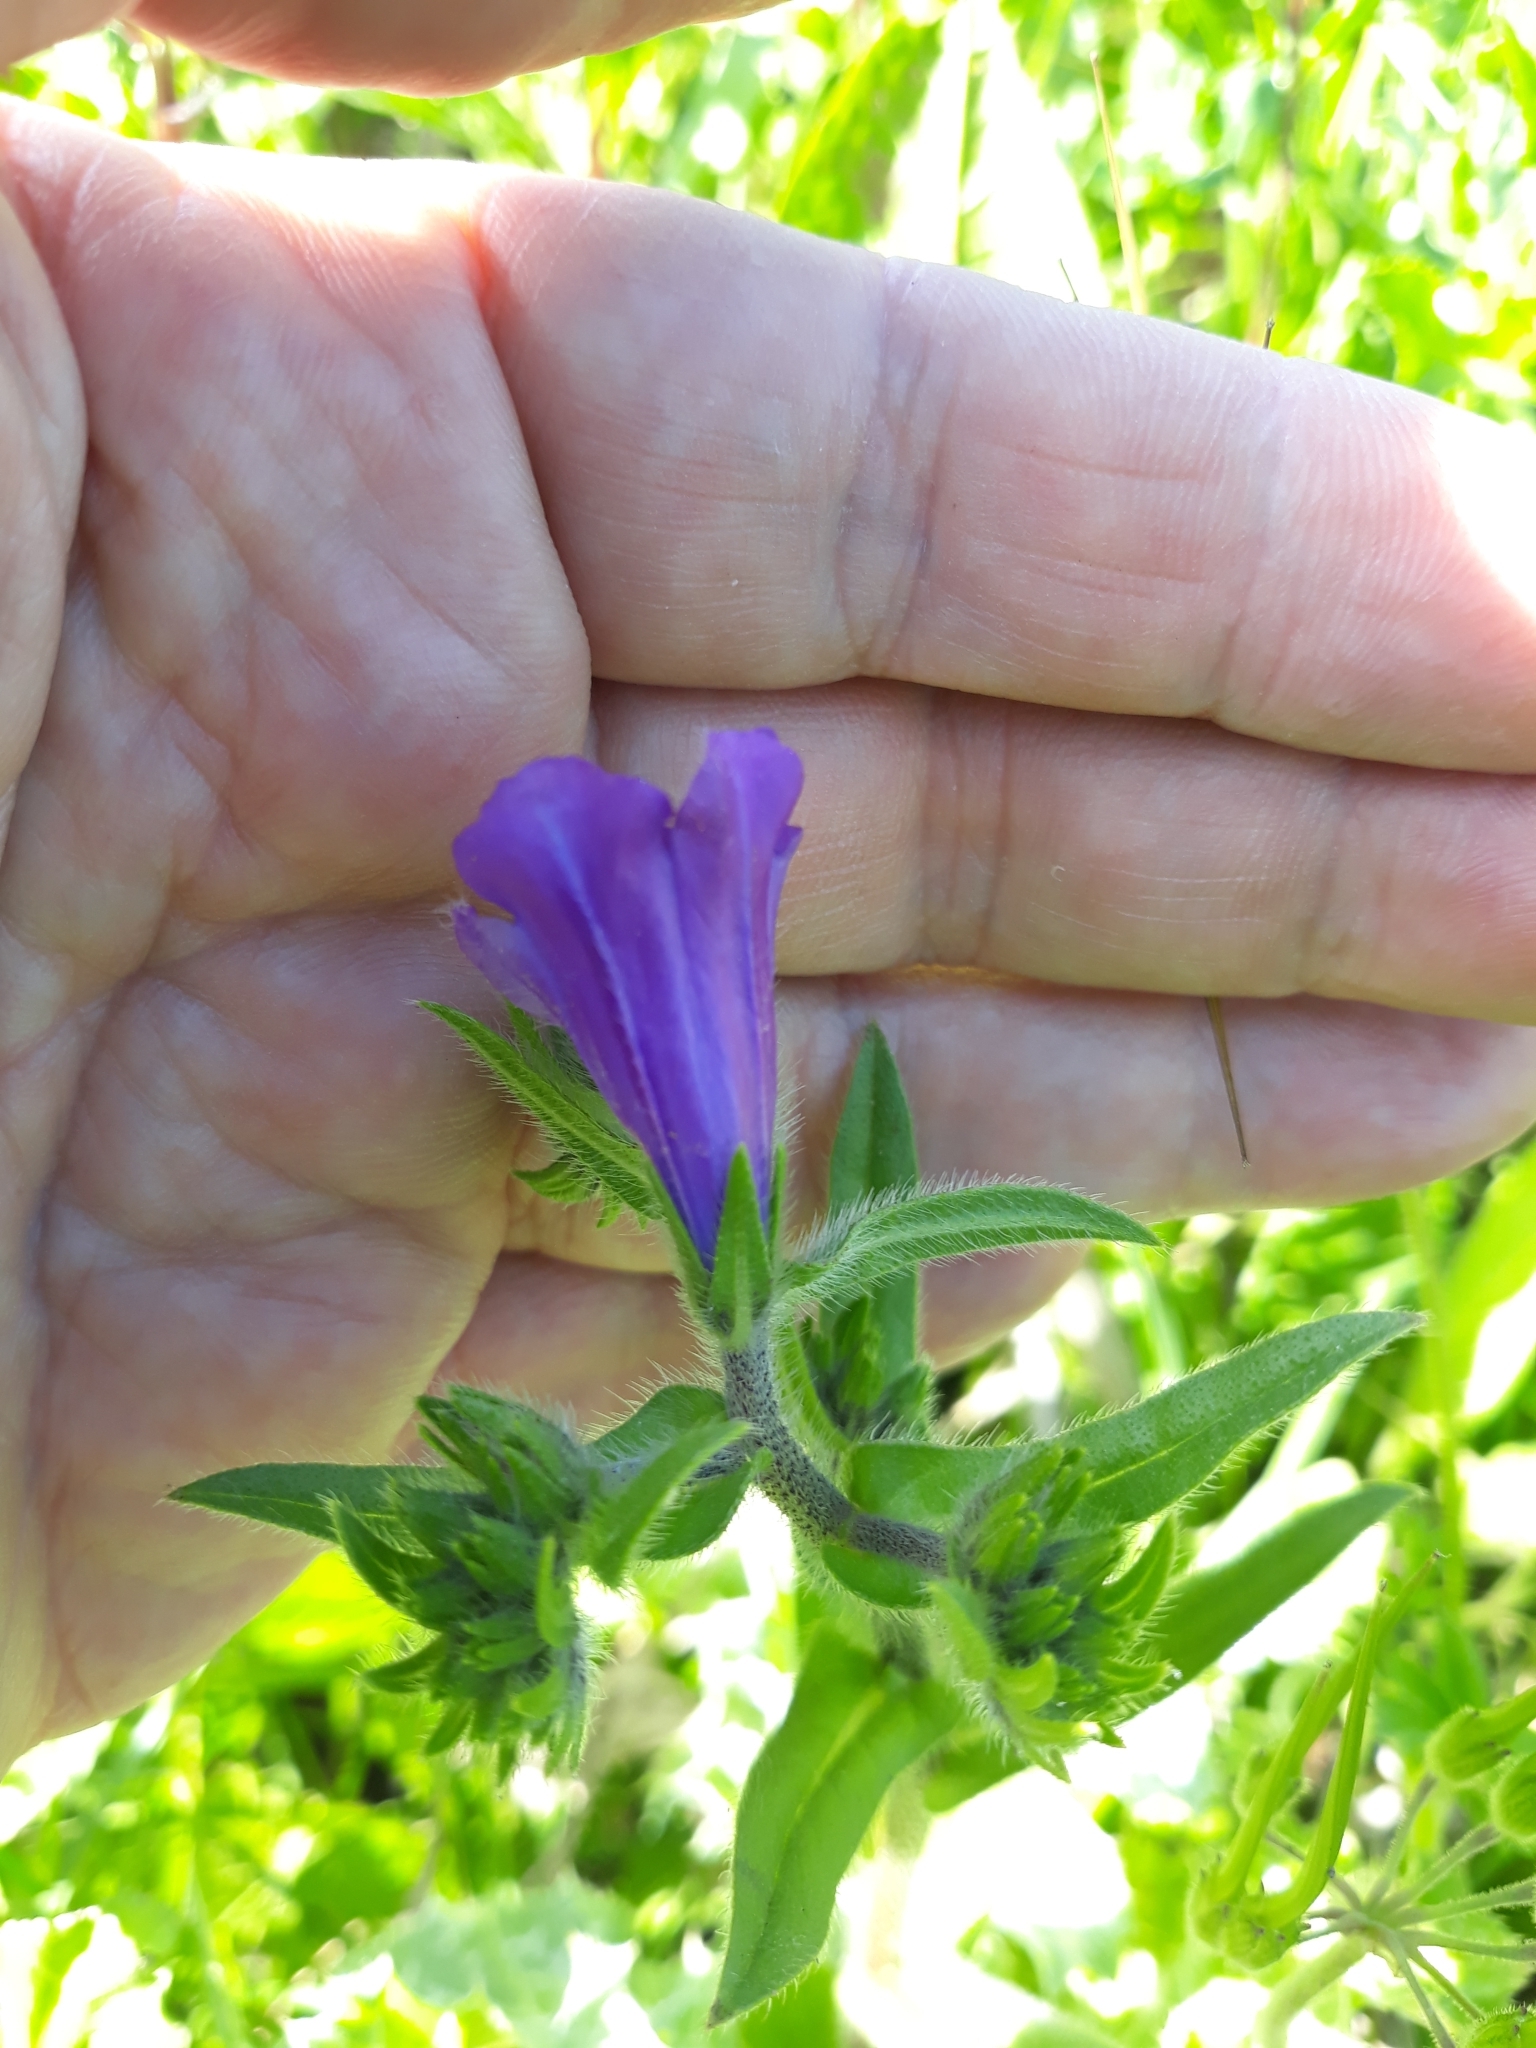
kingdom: Plantae
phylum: Tracheophyta
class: Magnoliopsida
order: Boraginales
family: Boraginaceae
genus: Echium
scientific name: Echium plantagineum
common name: Purple viper's-bugloss
